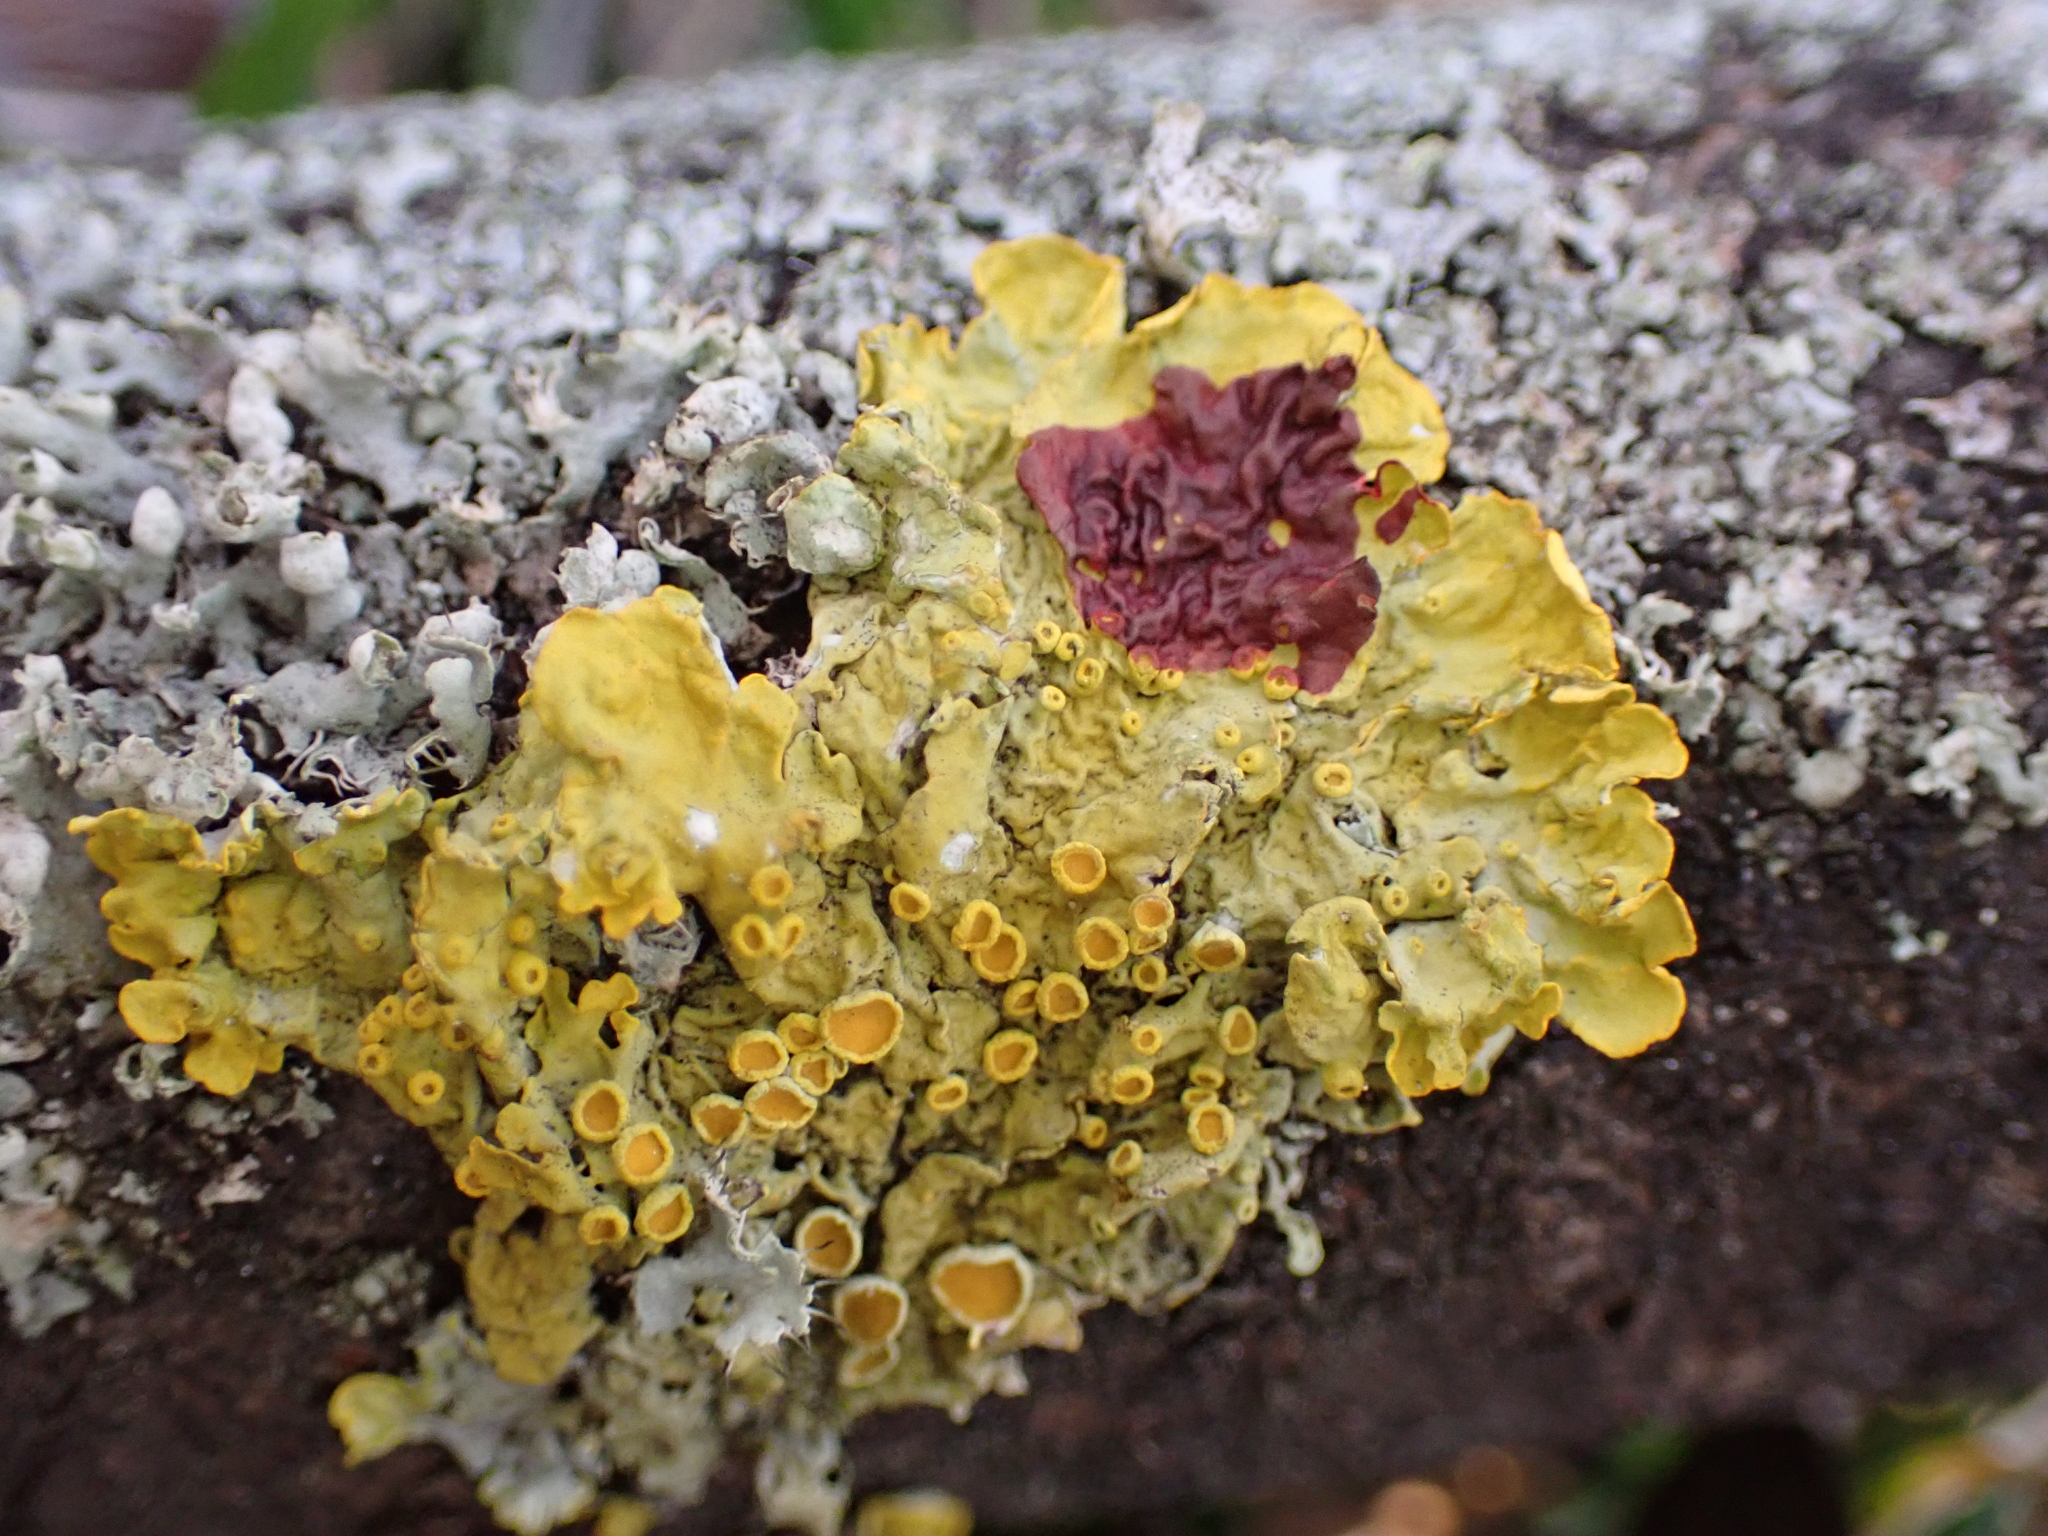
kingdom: Fungi
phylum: Ascomycota
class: Lecanoromycetes
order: Teloschistales
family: Teloschistaceae
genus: Xanthoria
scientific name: Xanthoria parietina
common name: Common orange lichen
